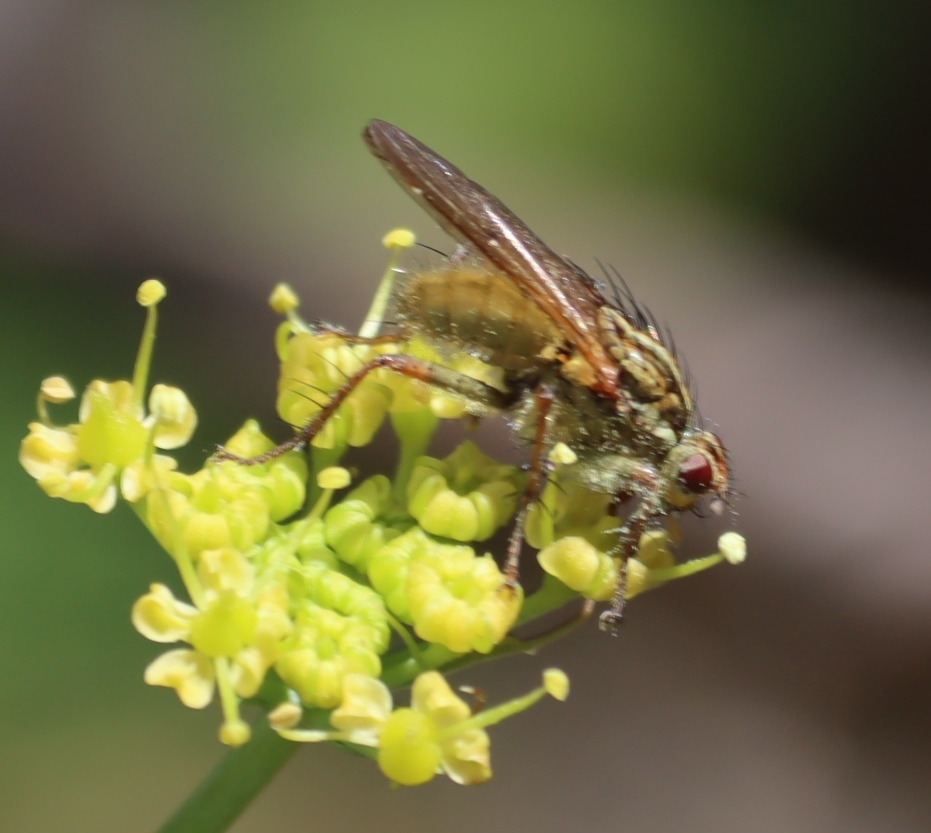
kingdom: Plantae
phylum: Tracheophyta
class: Magnoliopsida
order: Apiales
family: Apiaceae
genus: Notobubon
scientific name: Notobubon sonderi
